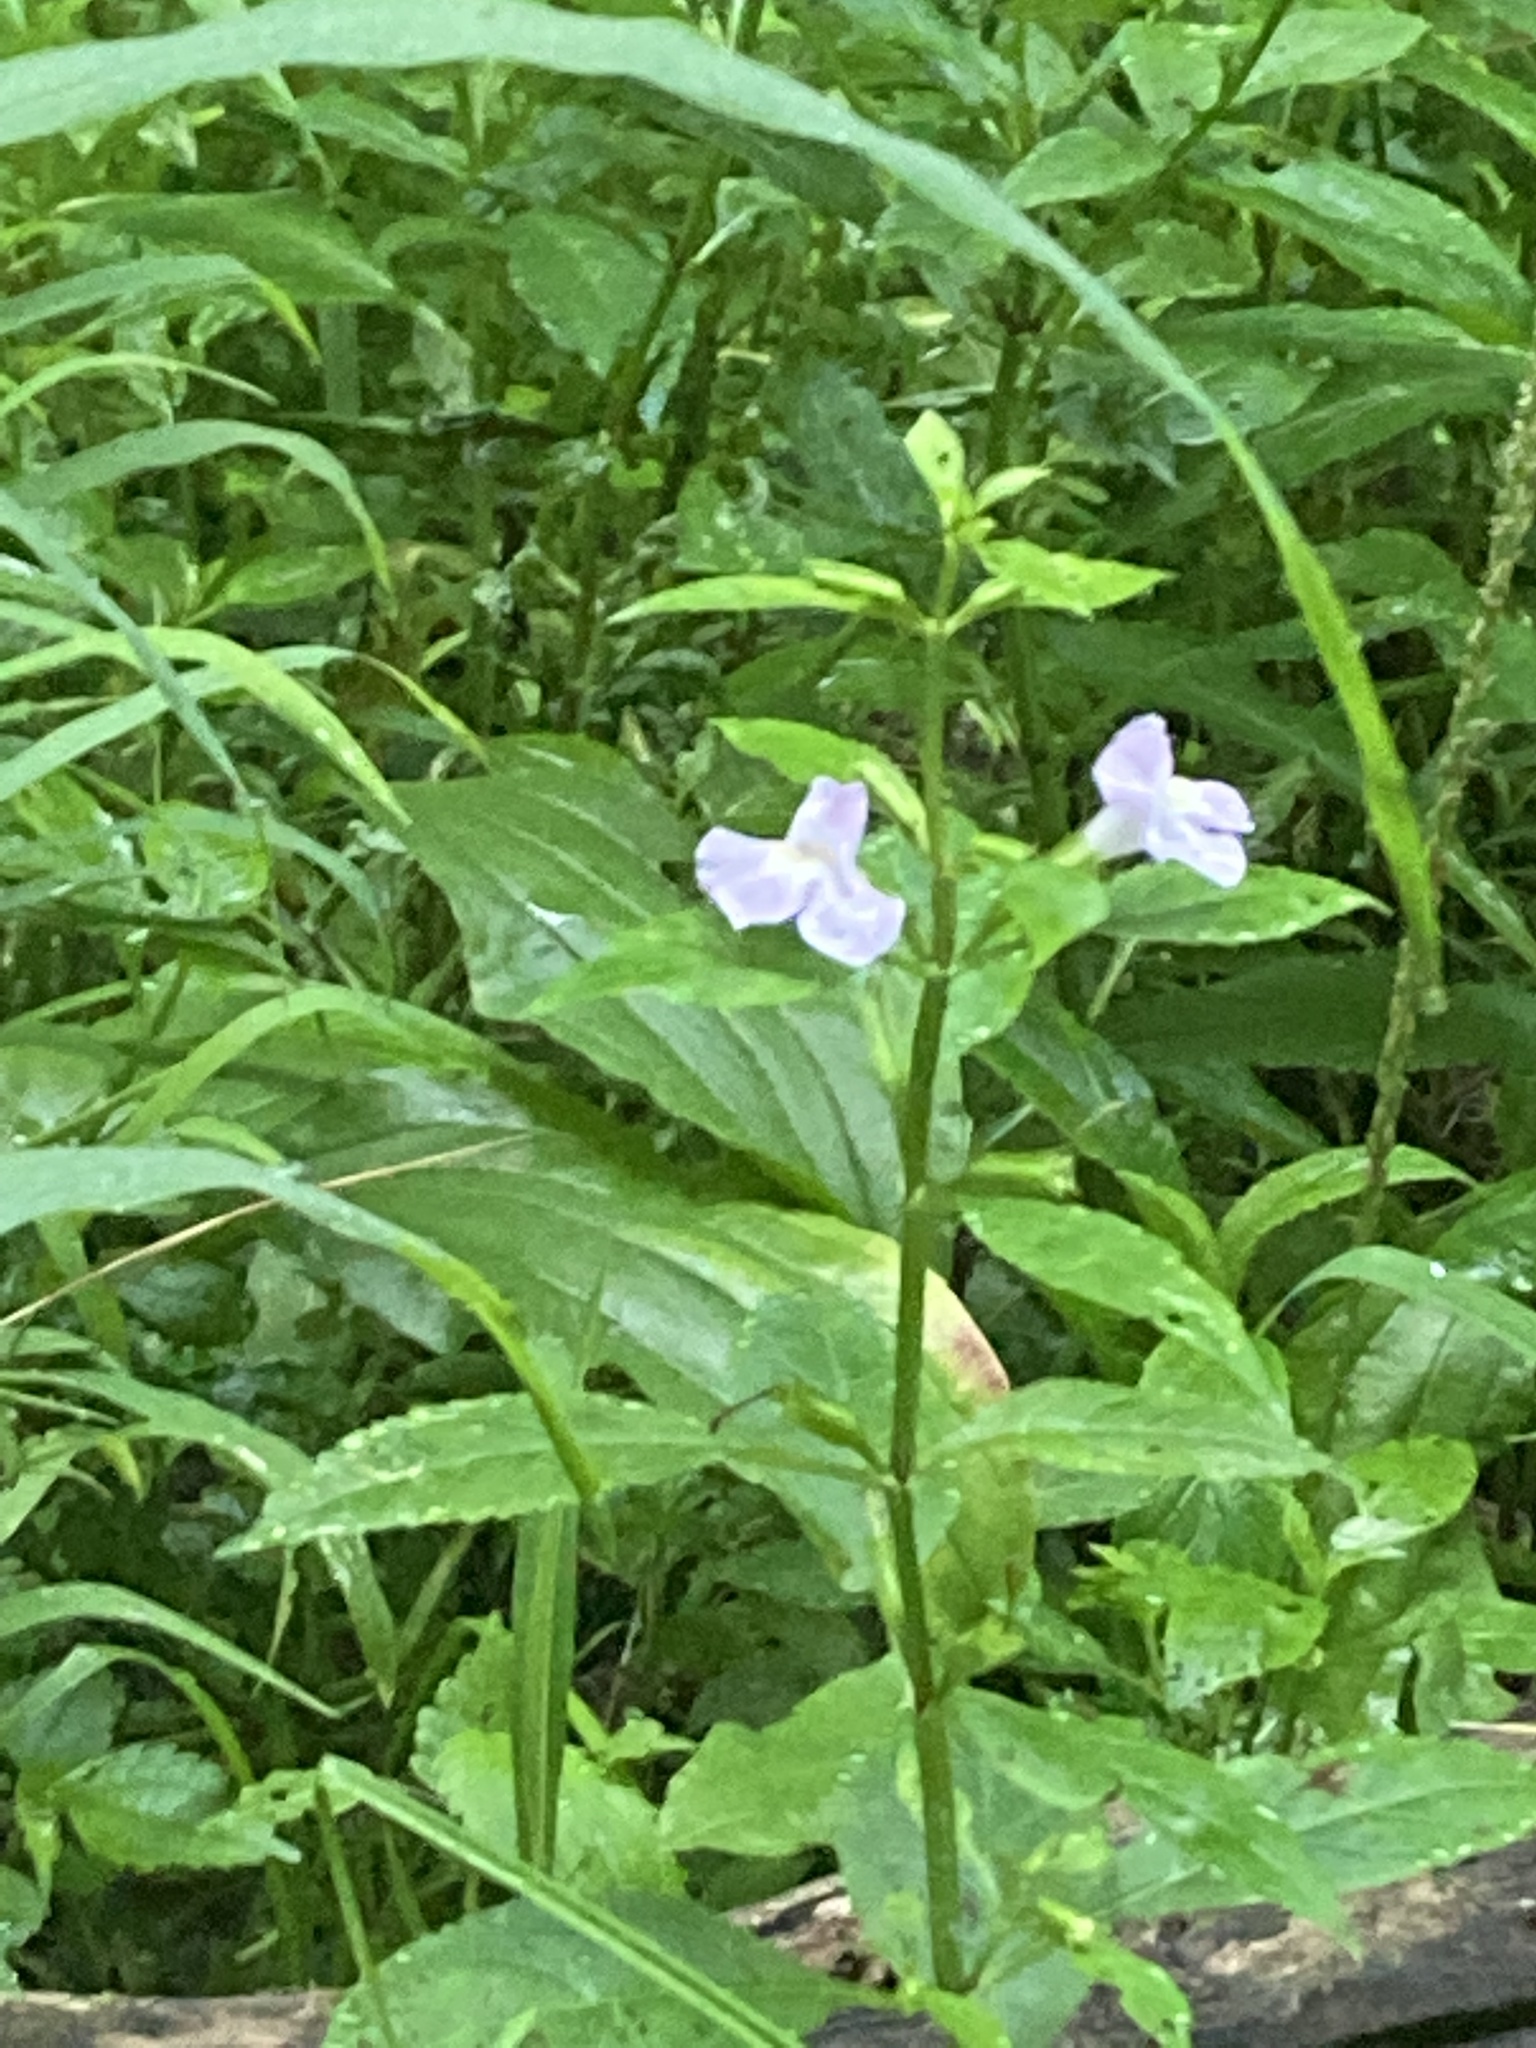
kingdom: Plantae
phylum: Tracheophyta
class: Magnoliopsida
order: Lamiales
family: Phrymaceae
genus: Mimulus
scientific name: Mimulus alatus
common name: Sharp-wing monkey-flower
